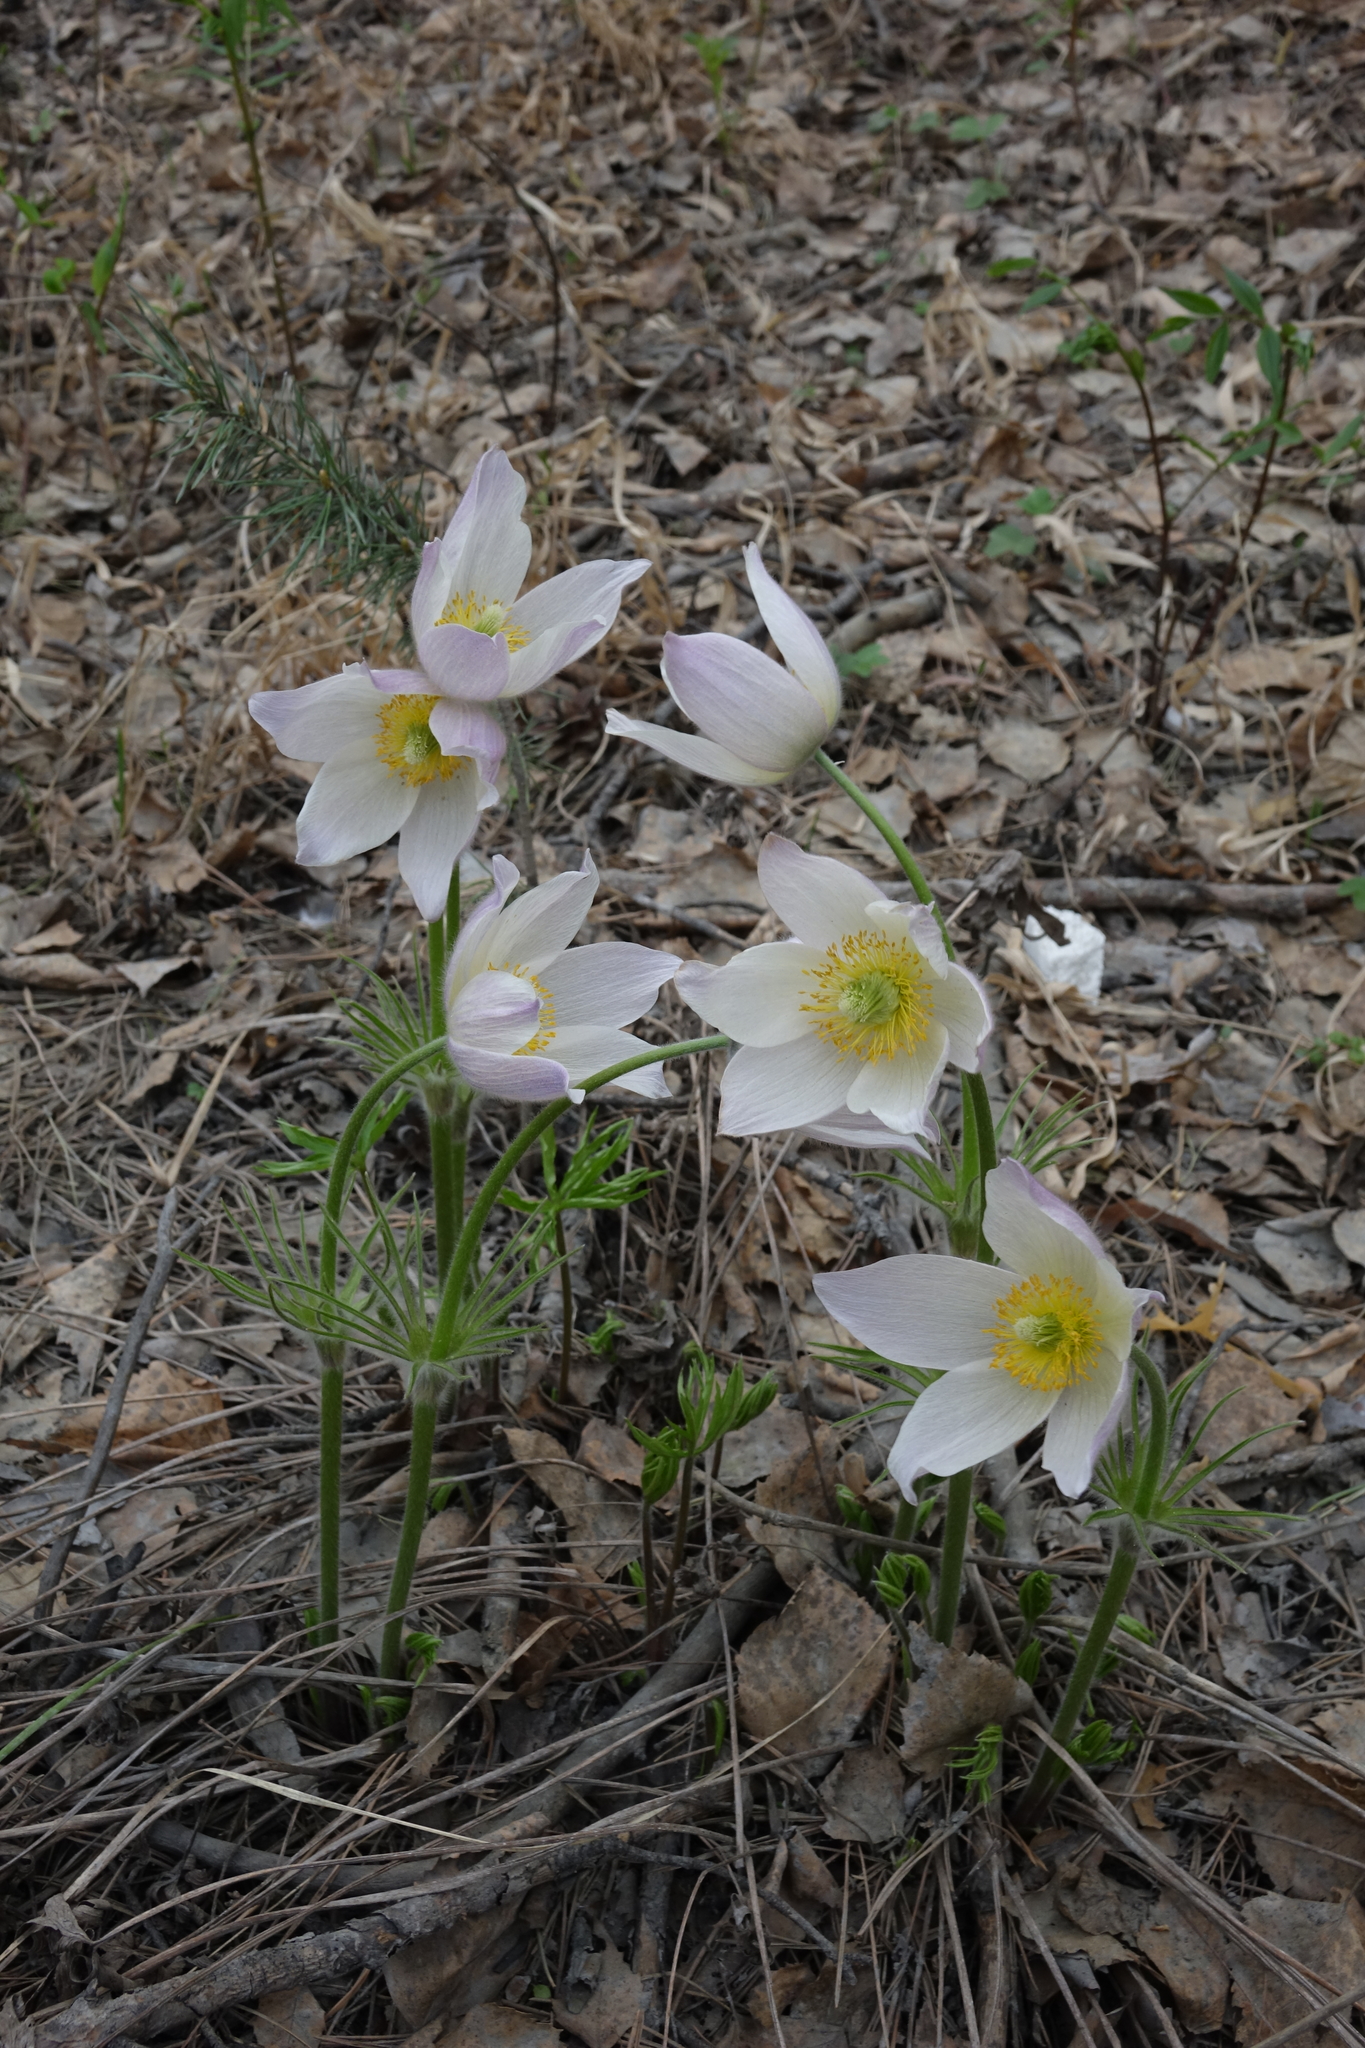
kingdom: Plantae
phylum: Tracheophyta
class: Magnoliopsida
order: Ranunculales
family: Ranunculaceae
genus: Pulsatilla
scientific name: Pulsatilla patens
